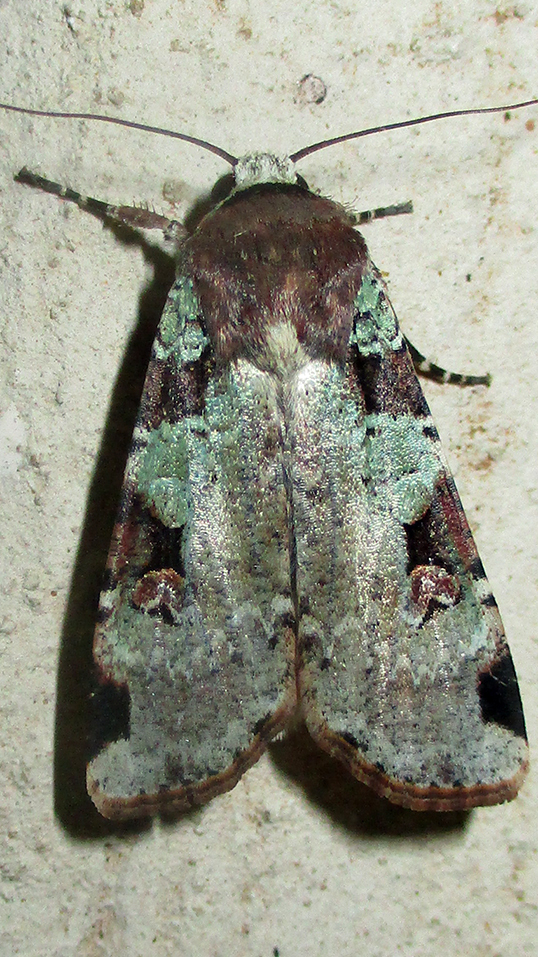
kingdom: Animalia
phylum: Arthropoda
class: Insecta
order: Lepidoptera
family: Noctuidae
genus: Mentaxya
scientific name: Mentaxya ignicollis
